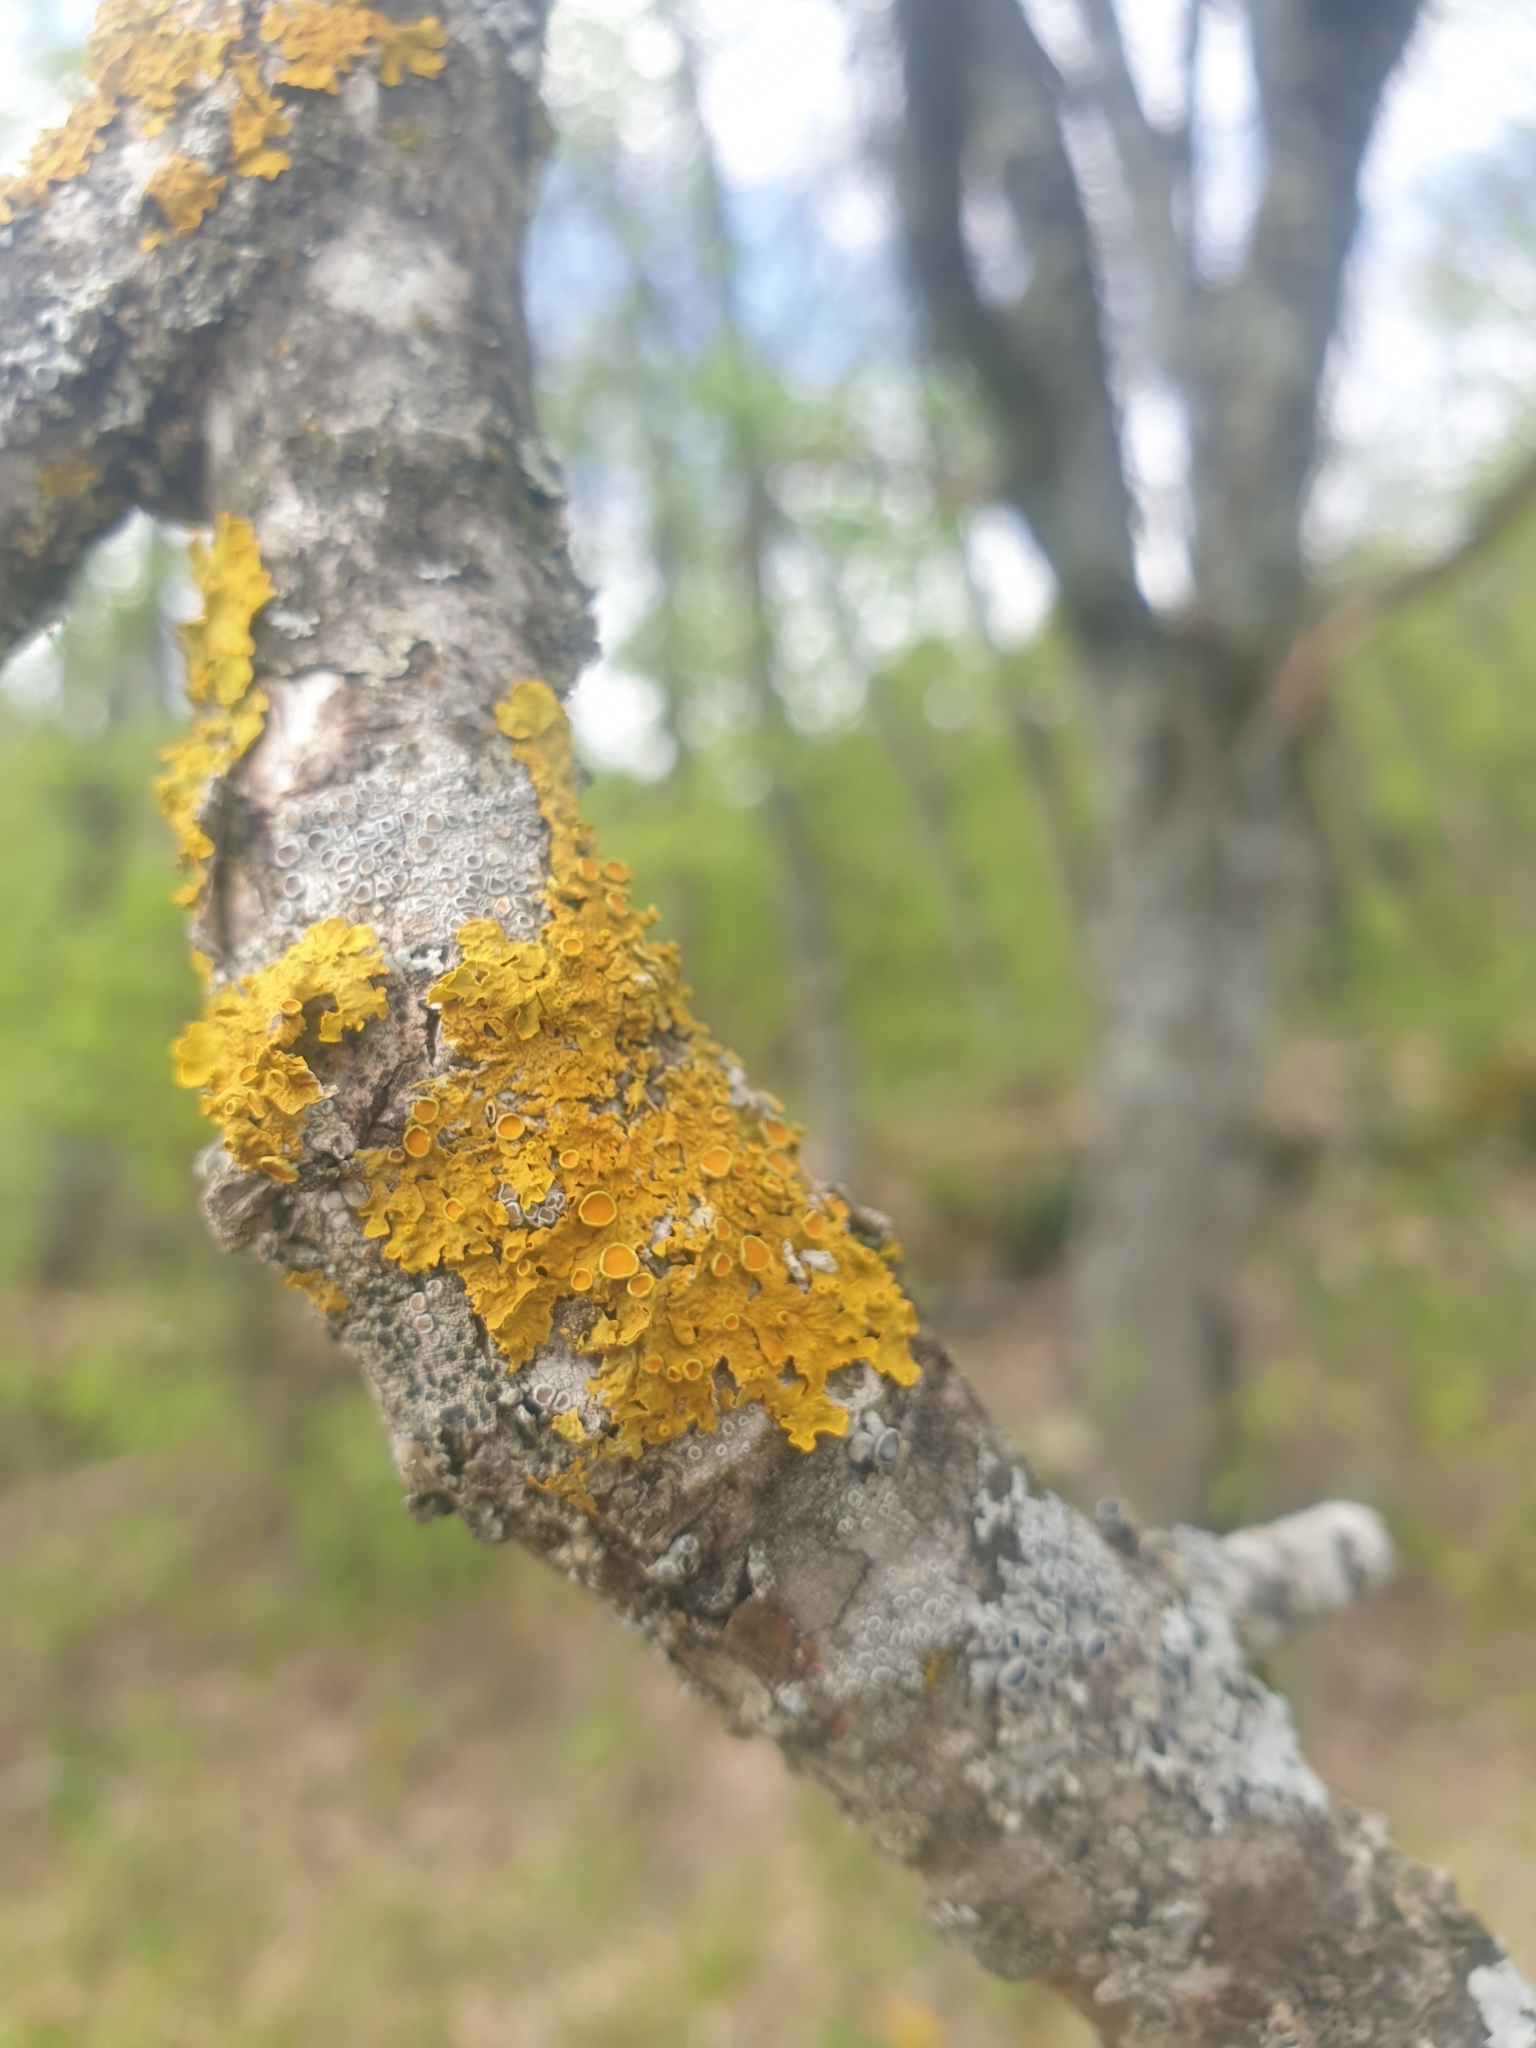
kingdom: Fungi
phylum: Ascomycota
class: Lecanoromycetes
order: Teloschistales
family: Teloschistaceae
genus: Xanthoria
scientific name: Xanthoria parietina
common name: Common orange lichen
